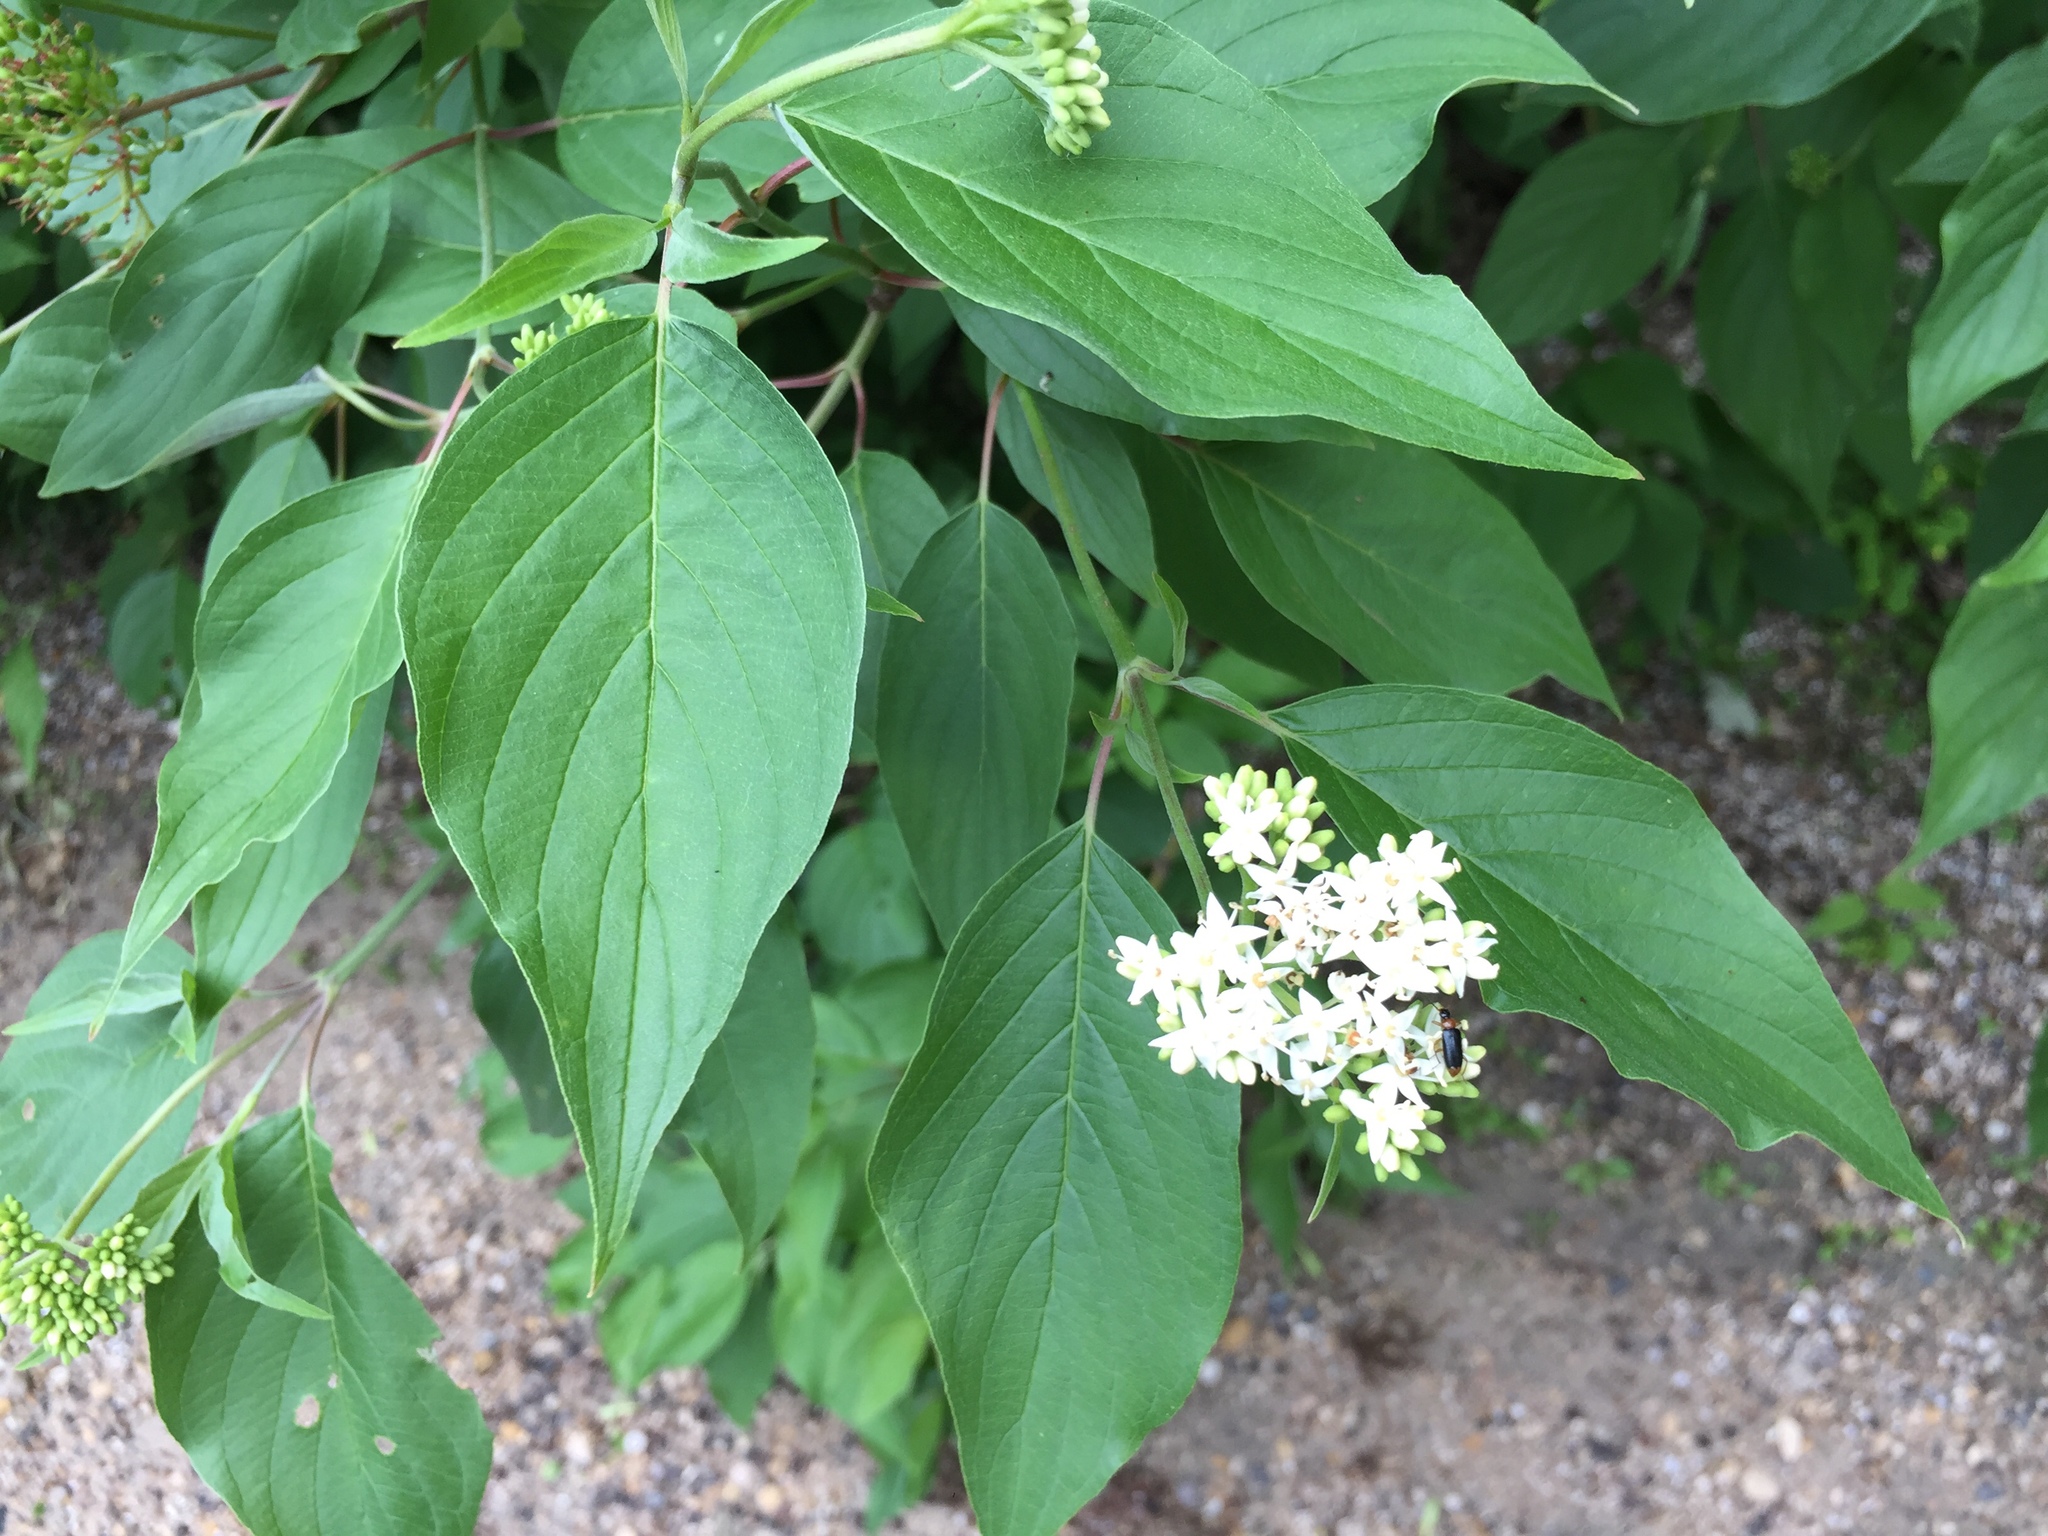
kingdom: Plantae
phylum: Tracheophyta
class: Magnoliopsida
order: Cornales
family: Cornaceae
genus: Cornus
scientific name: Cornus sericea
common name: Red-osier dogwood
